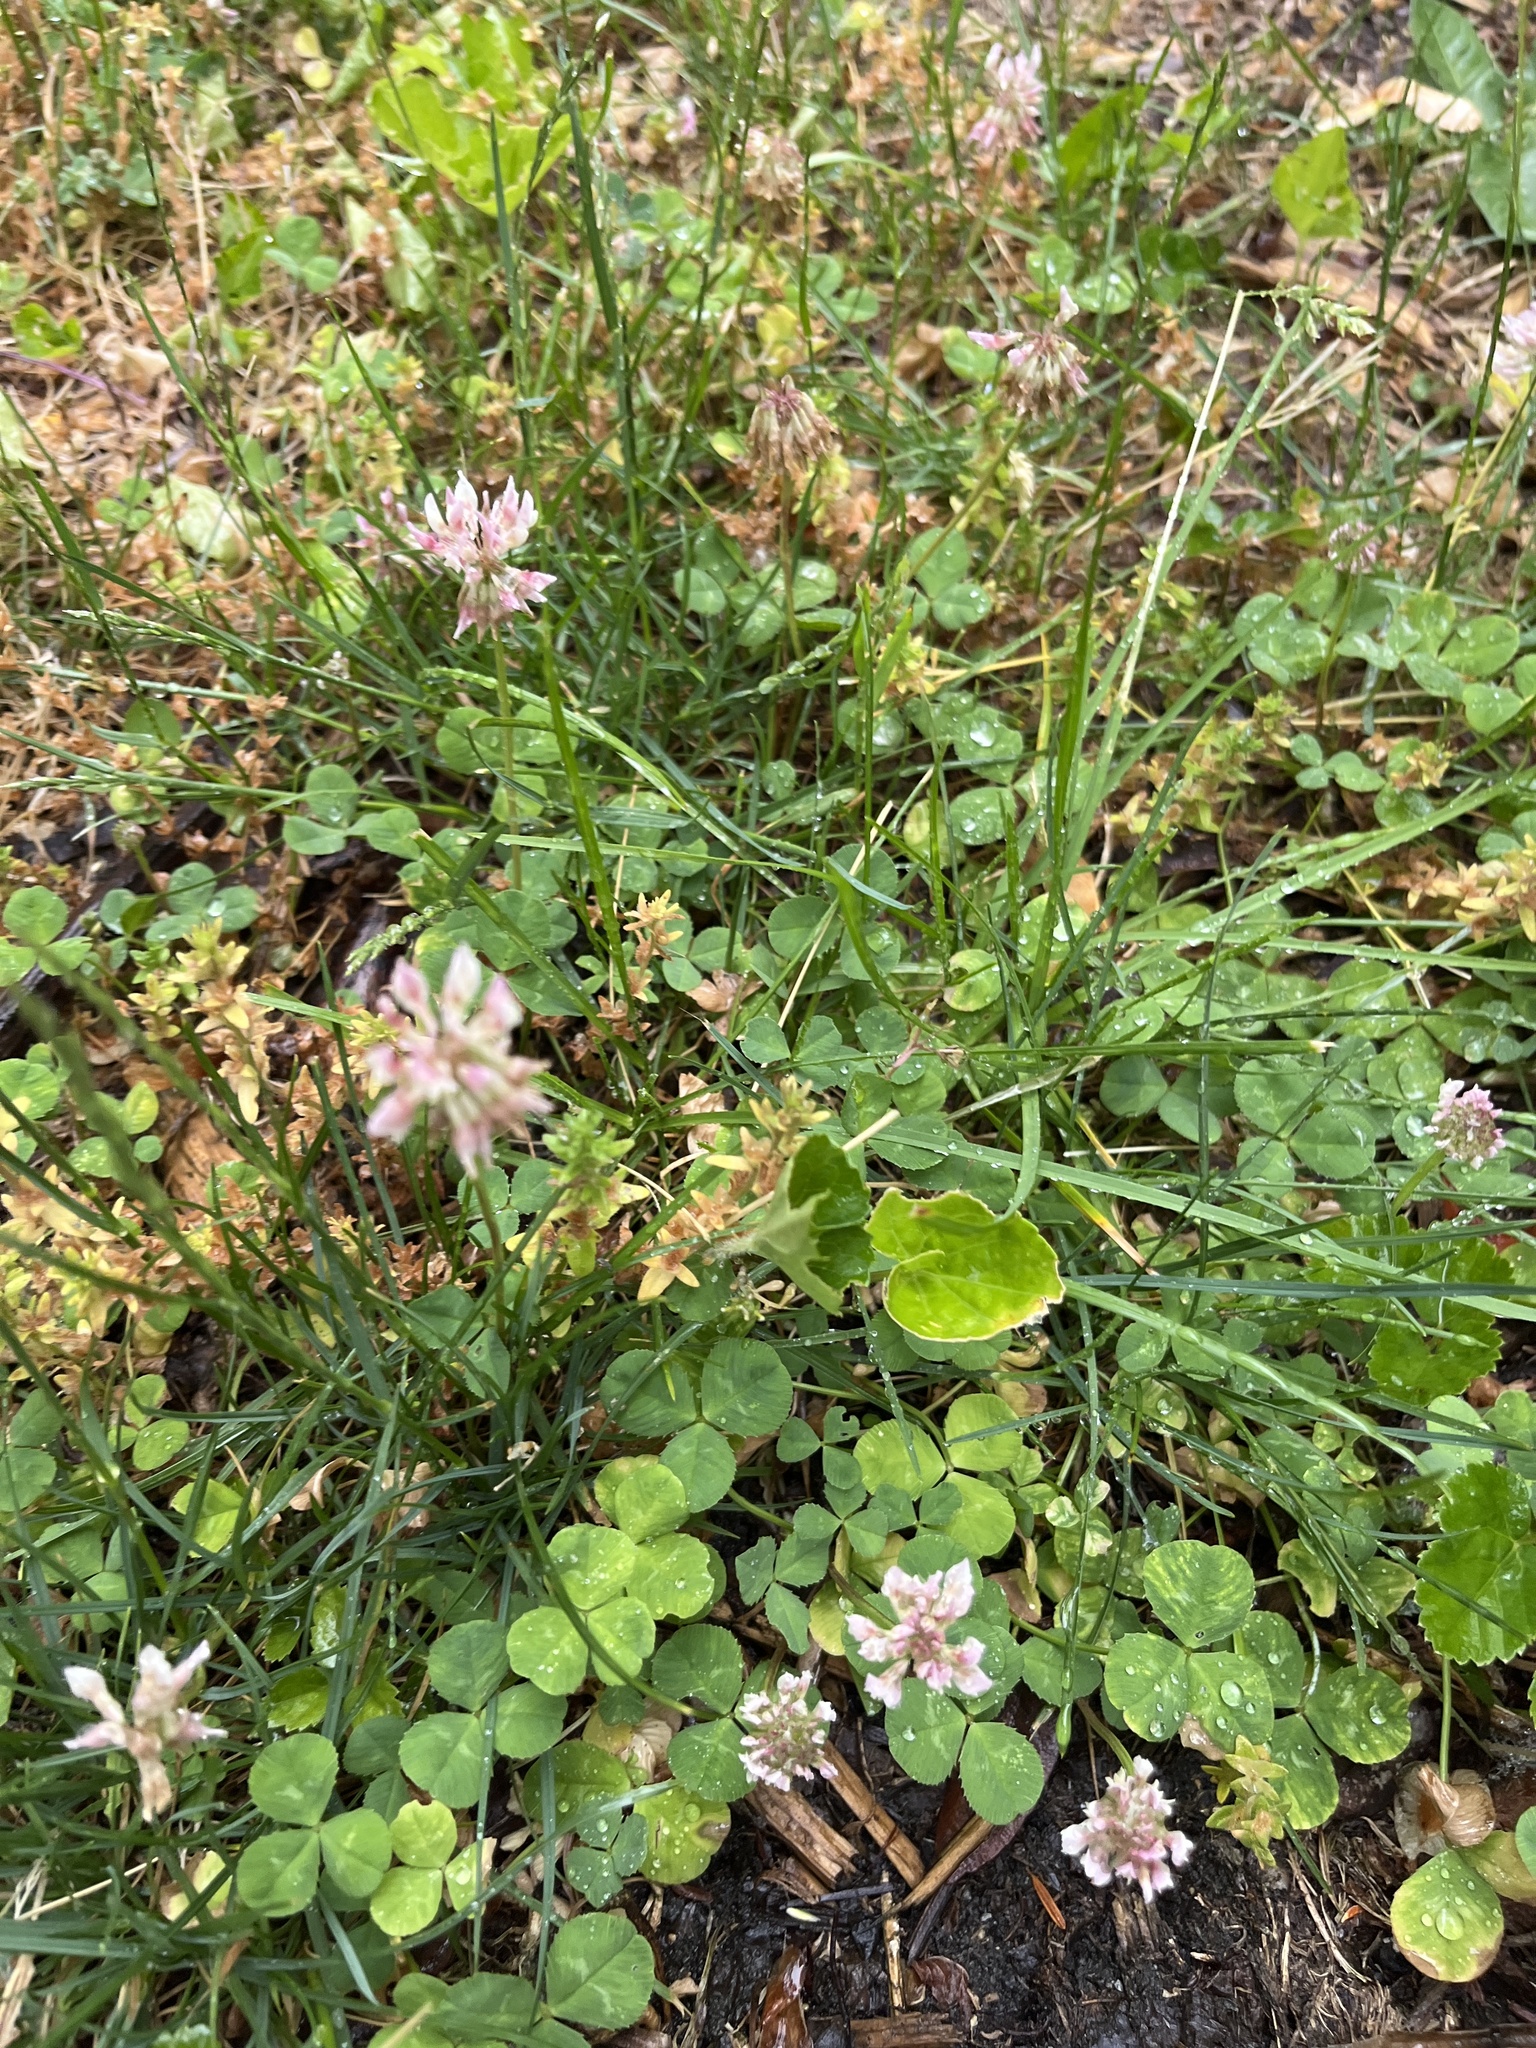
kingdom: Plantae
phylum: Tracheophyta
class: Magnoliopsida
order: Fabales
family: Fabaceae
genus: Trifolium
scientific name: Trifolium repens
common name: White clover
